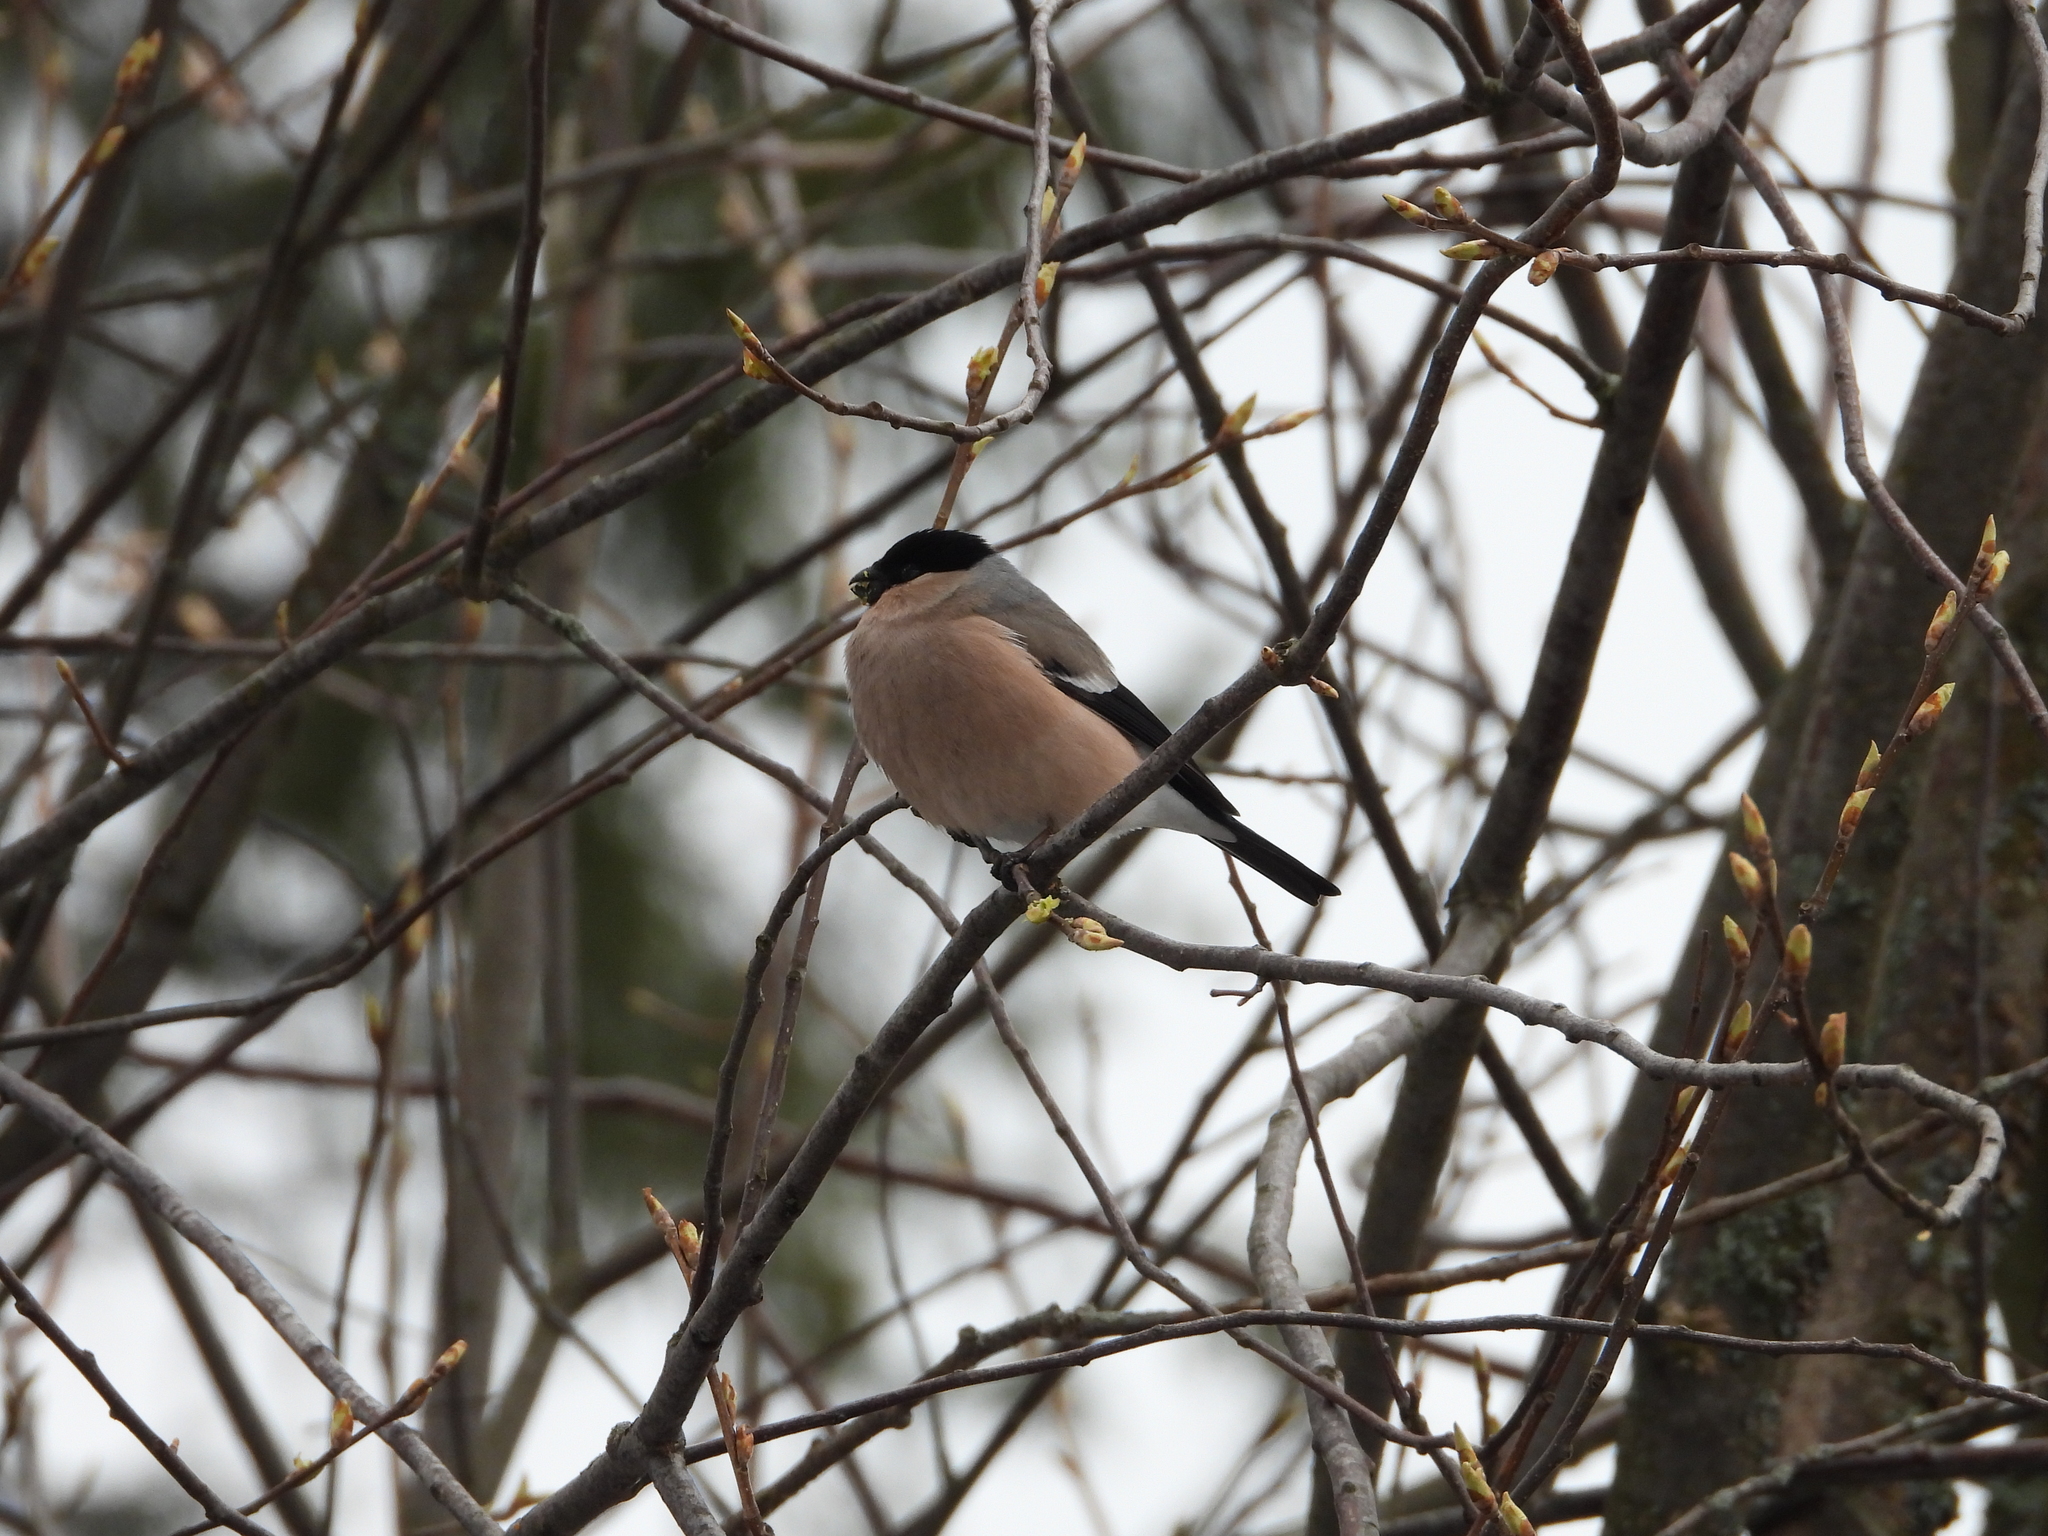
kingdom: Animalia
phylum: Chordata
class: Aves
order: Passeriformes
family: Fringillidae
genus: Pyrrhula
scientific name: Pyrrhula pyrrhula
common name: Eurasian bullfinch
